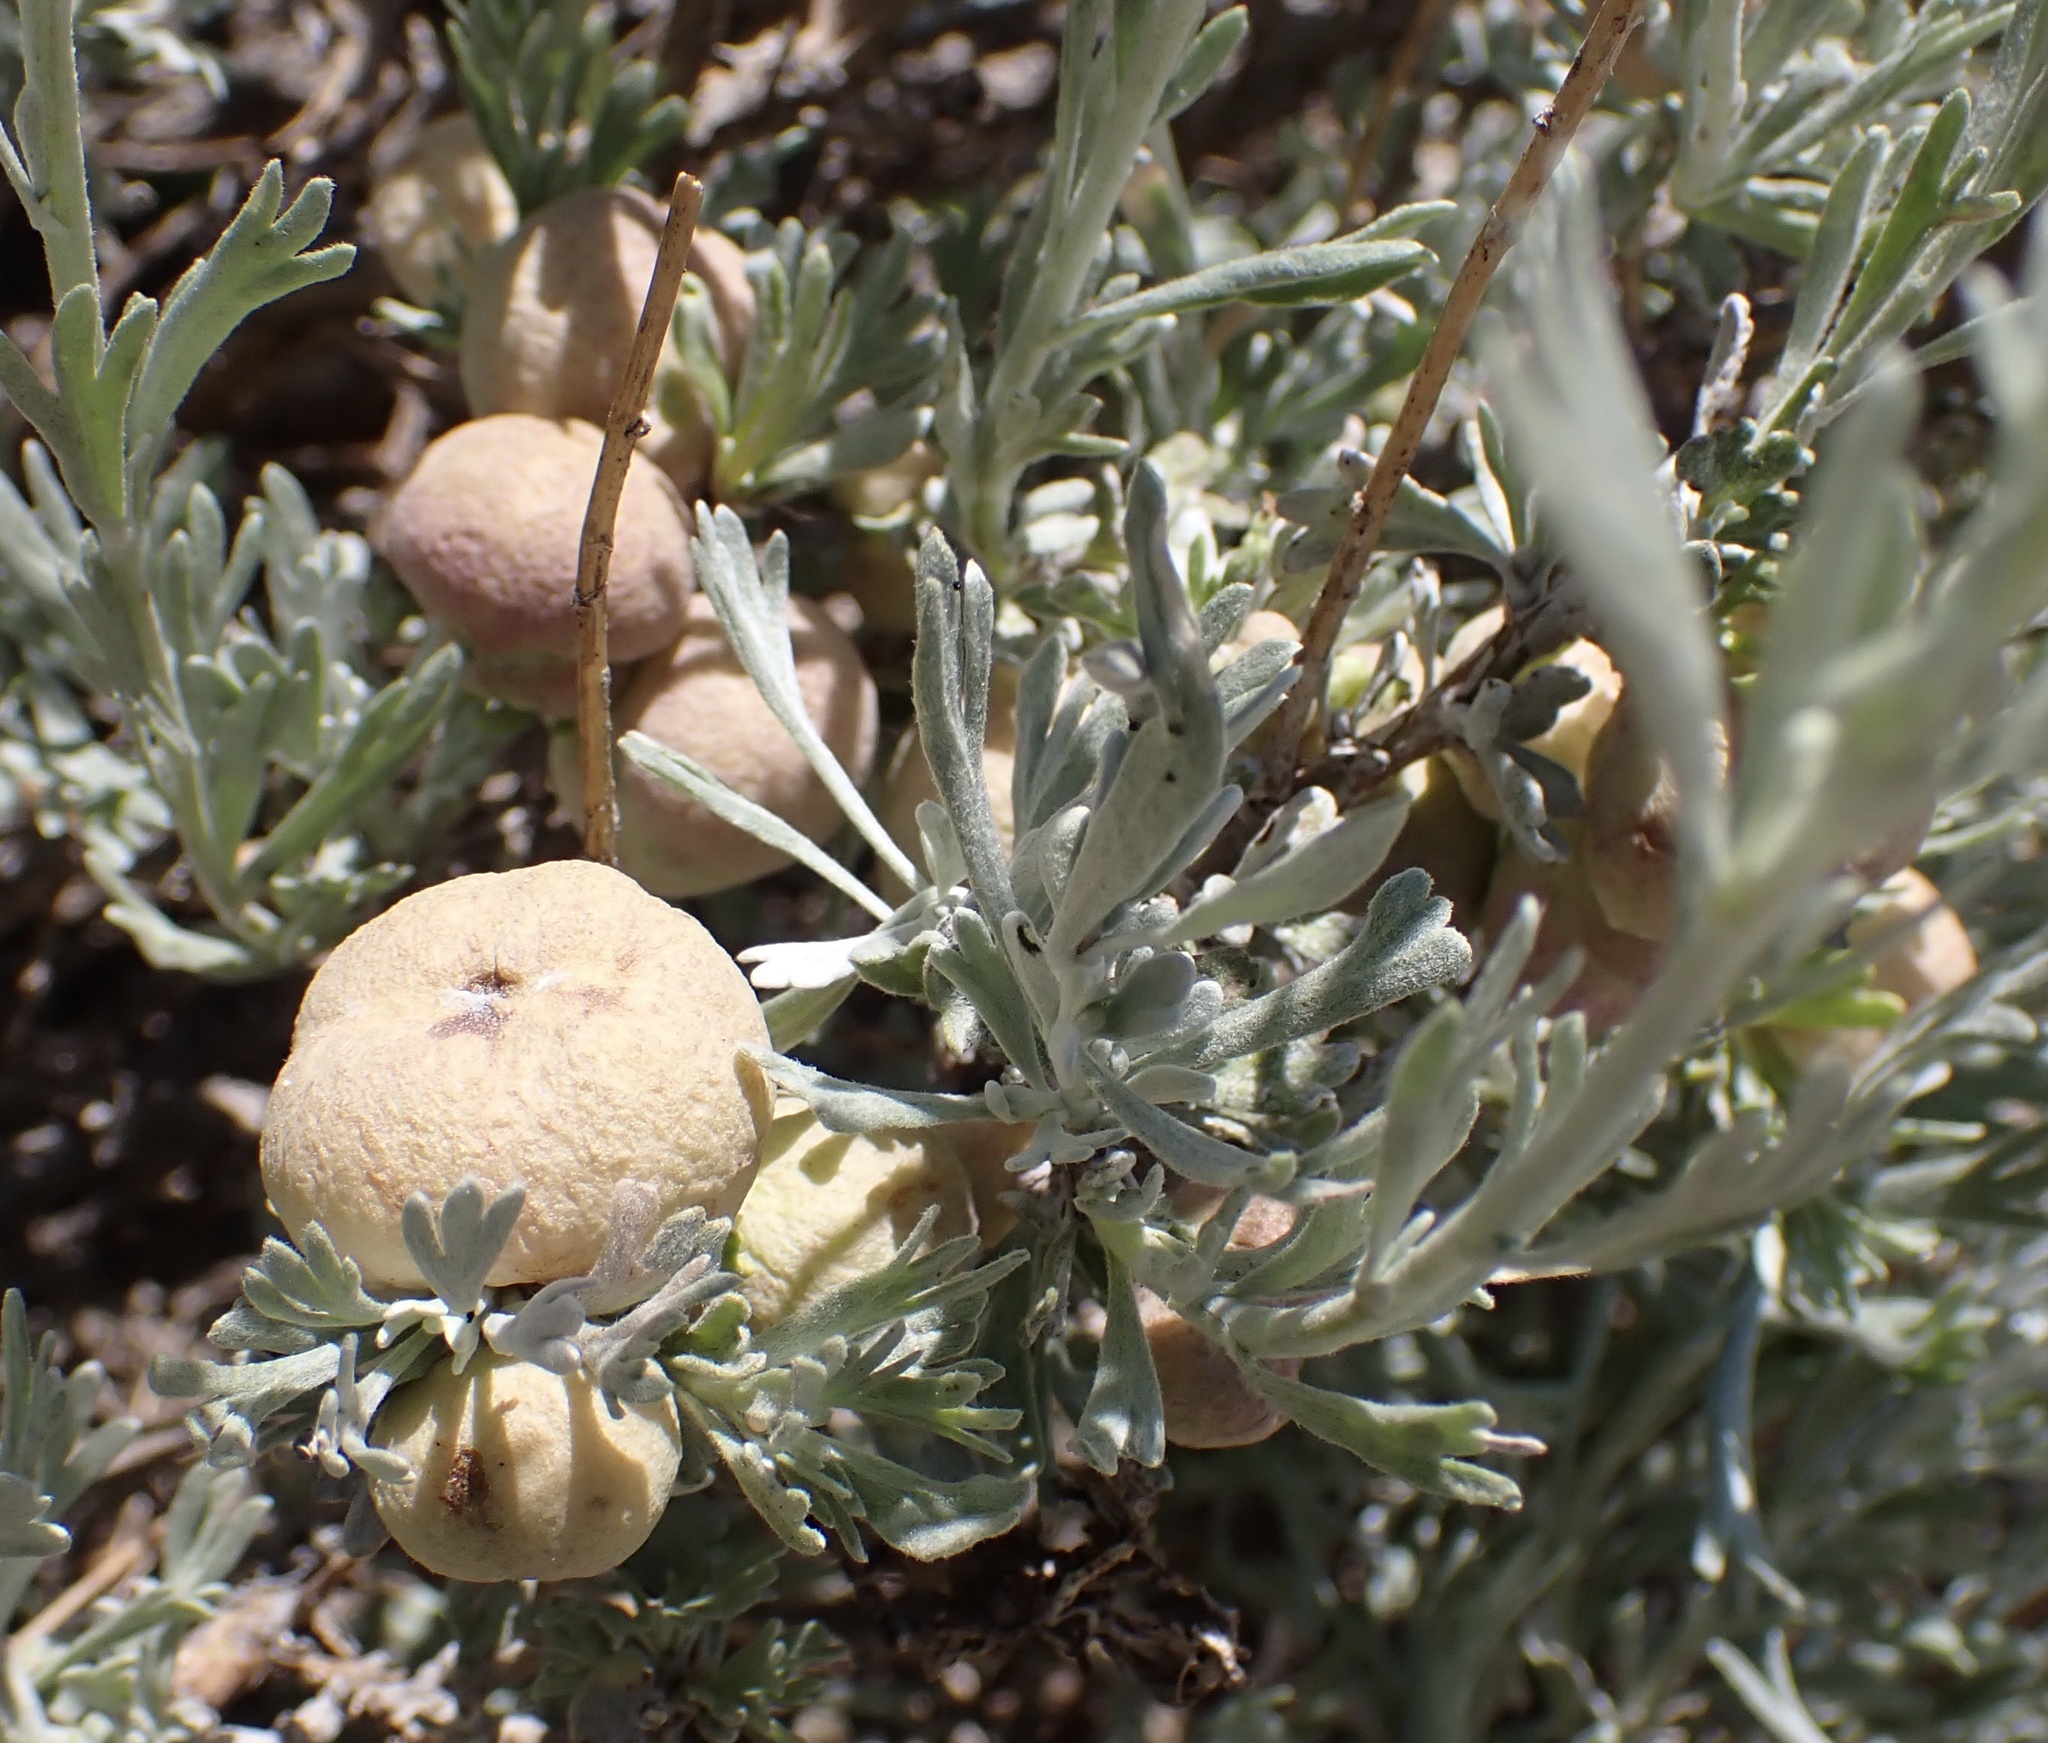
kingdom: Animalia
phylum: Arthropoda
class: Insecta
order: Diptera
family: Cecidomyiidae
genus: Rhopalomyia
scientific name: Rhopalomyia pomum
